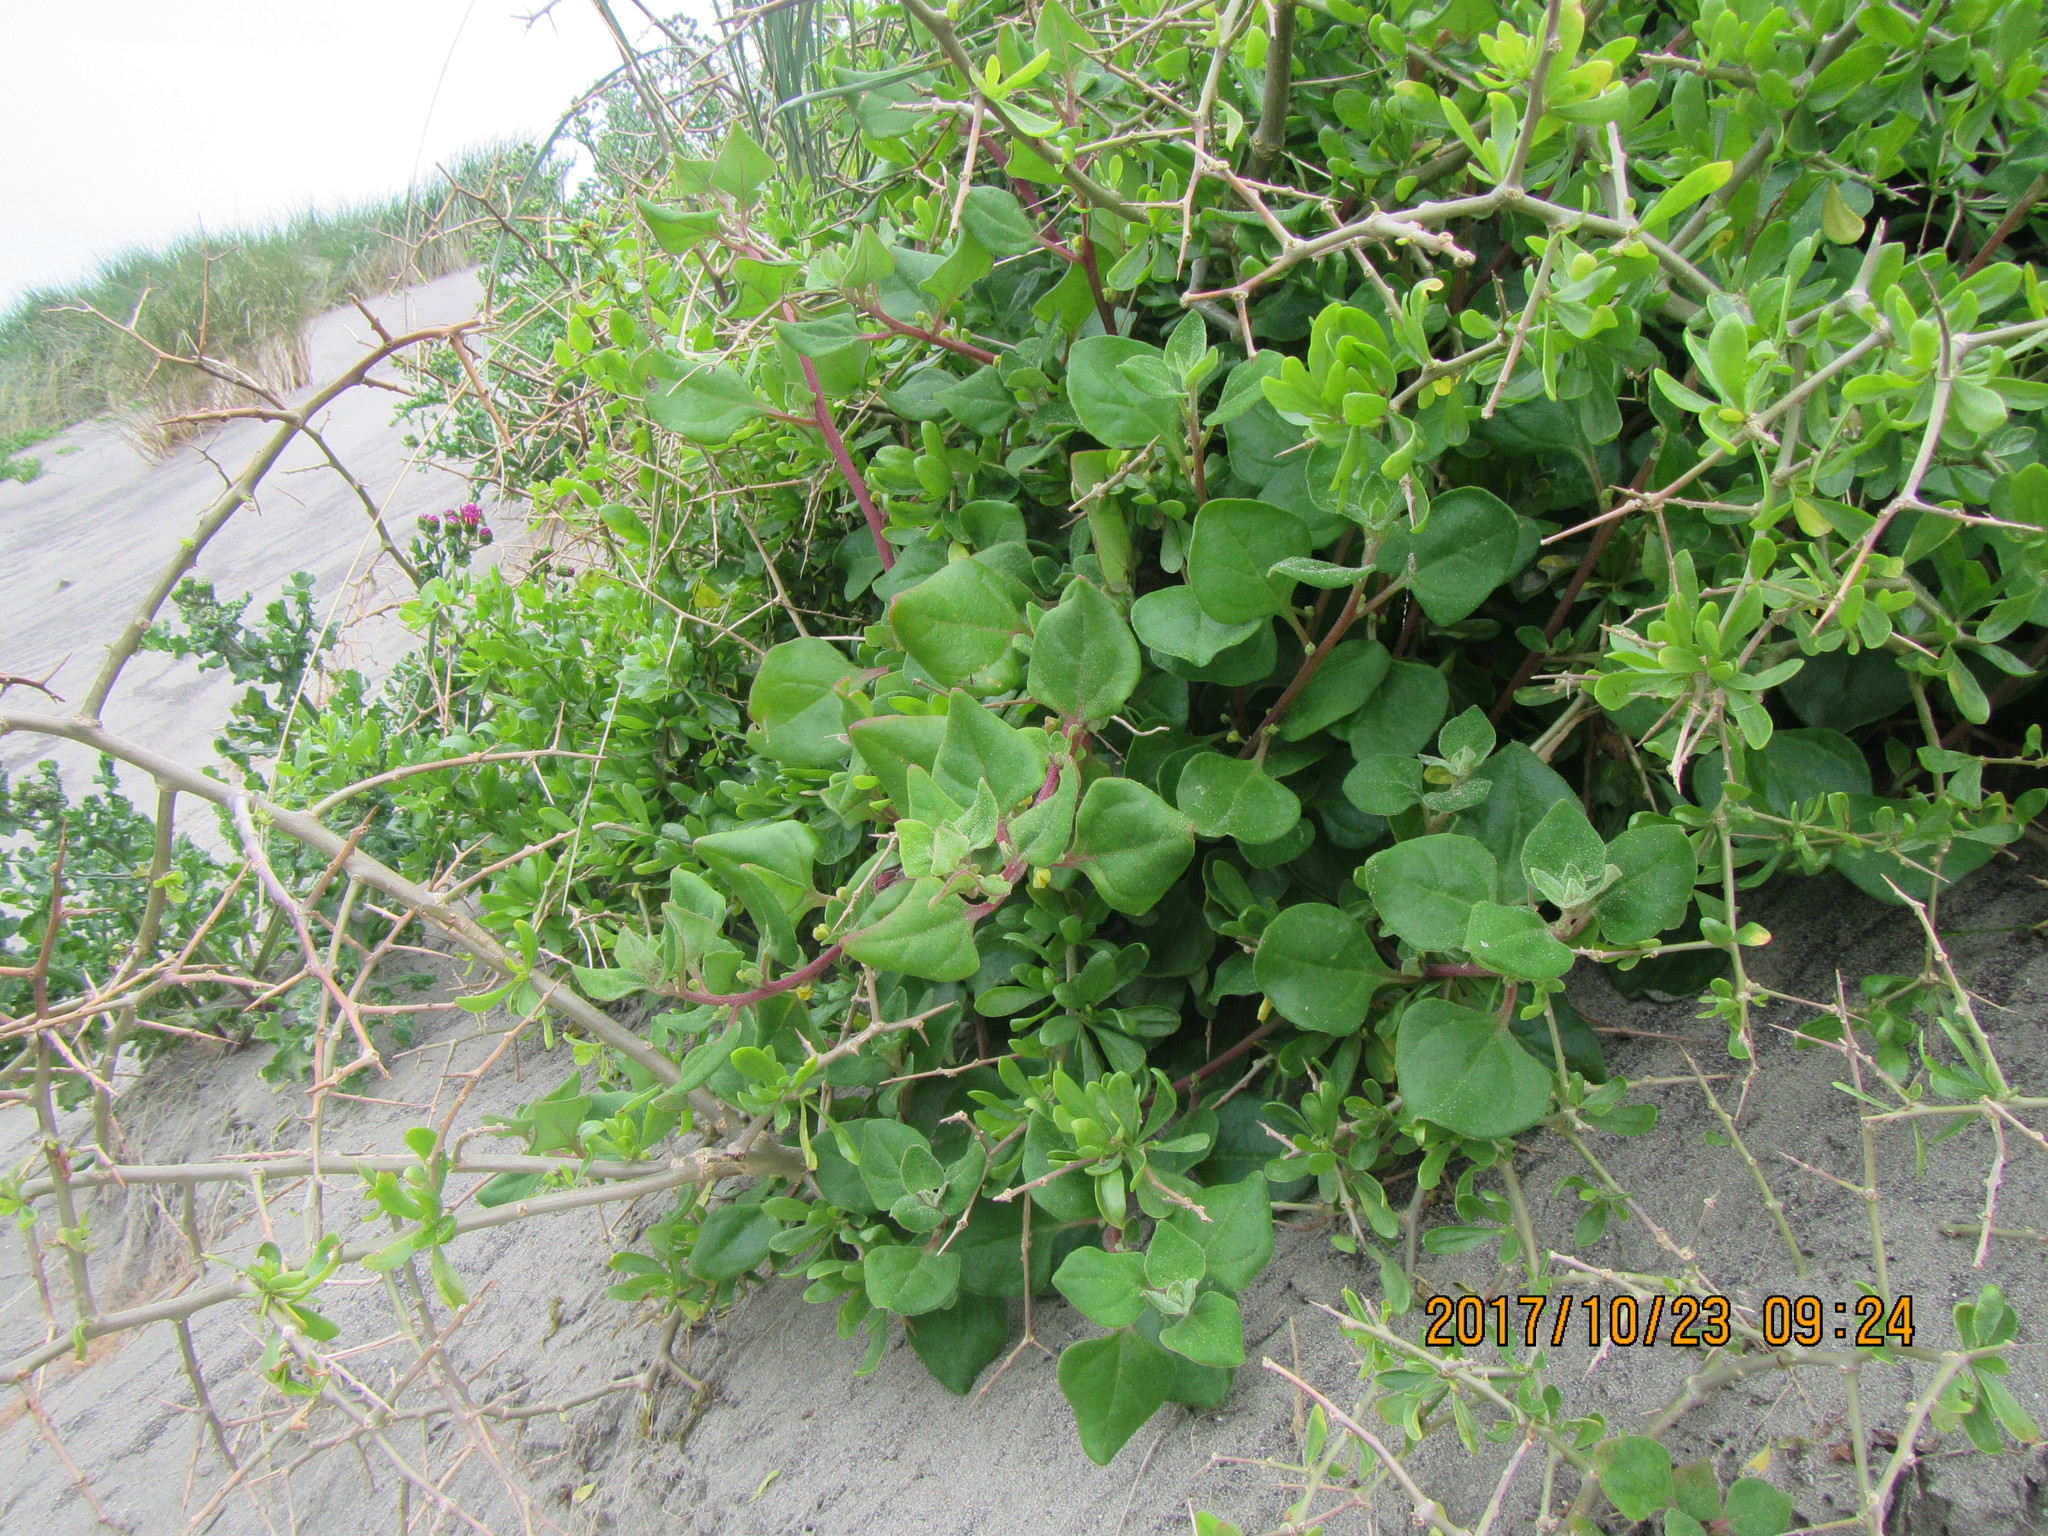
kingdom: Plantae
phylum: Tracheophyta
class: Magnoliopsida
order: Caryophyllales
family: Aizoaceae
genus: Tetragonia
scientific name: Tetragonia implexicoma
